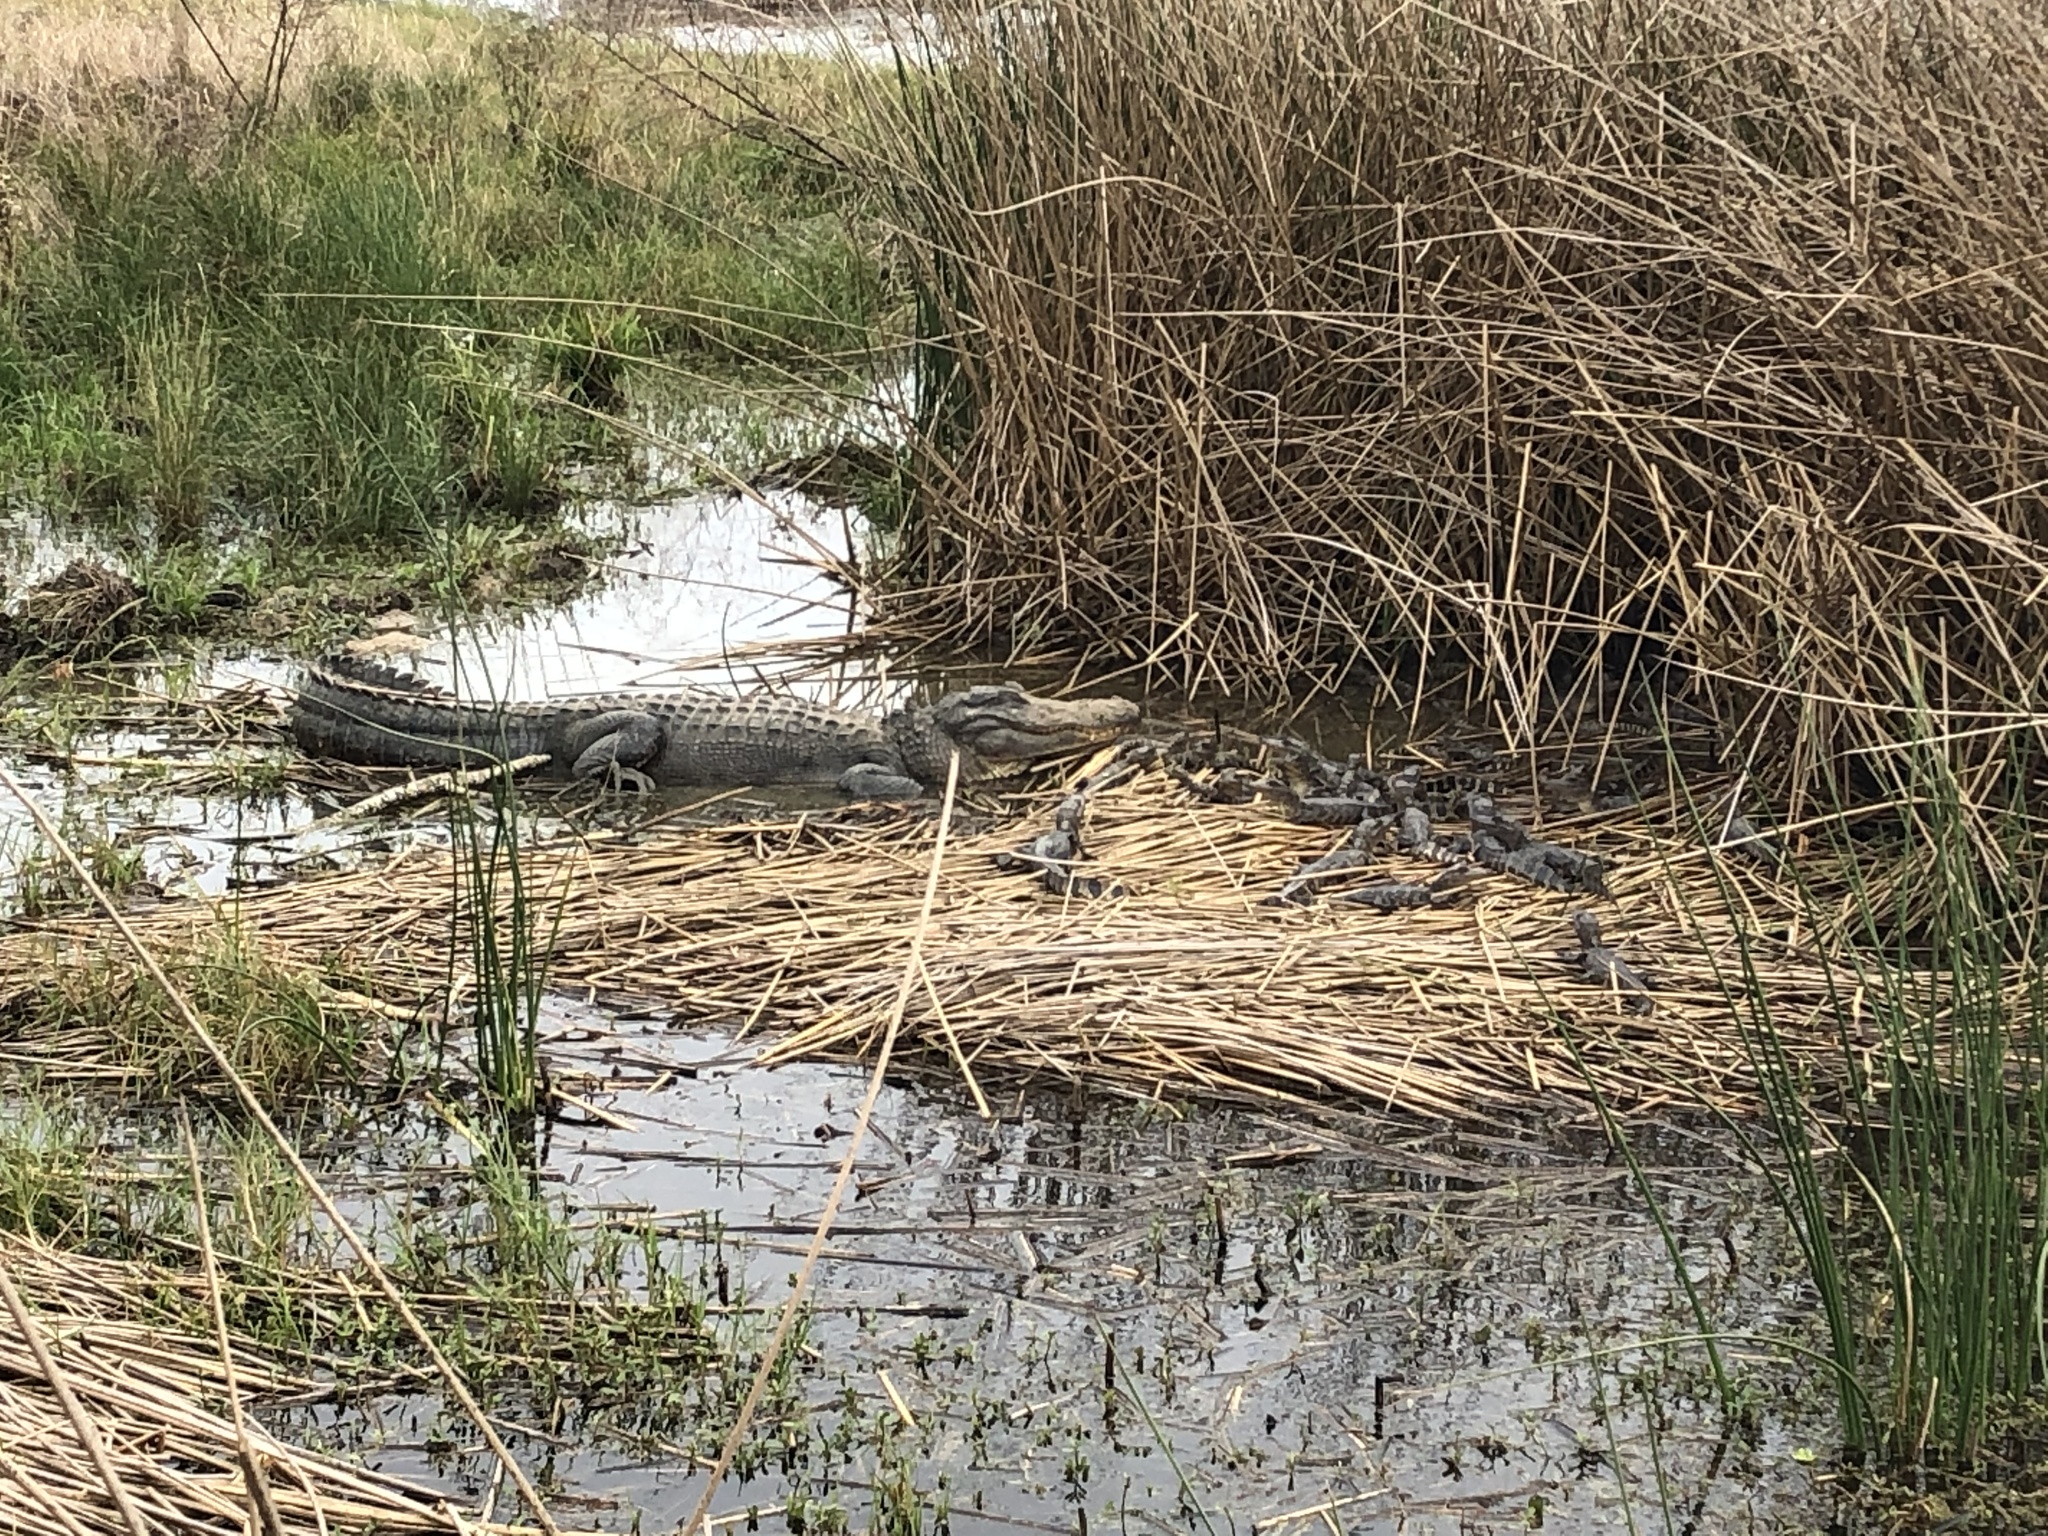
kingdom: Animalia
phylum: Chordata
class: Crocodylia
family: Alligatoridae
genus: Alligator
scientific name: Alligator mississippiensis
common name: American alligator
